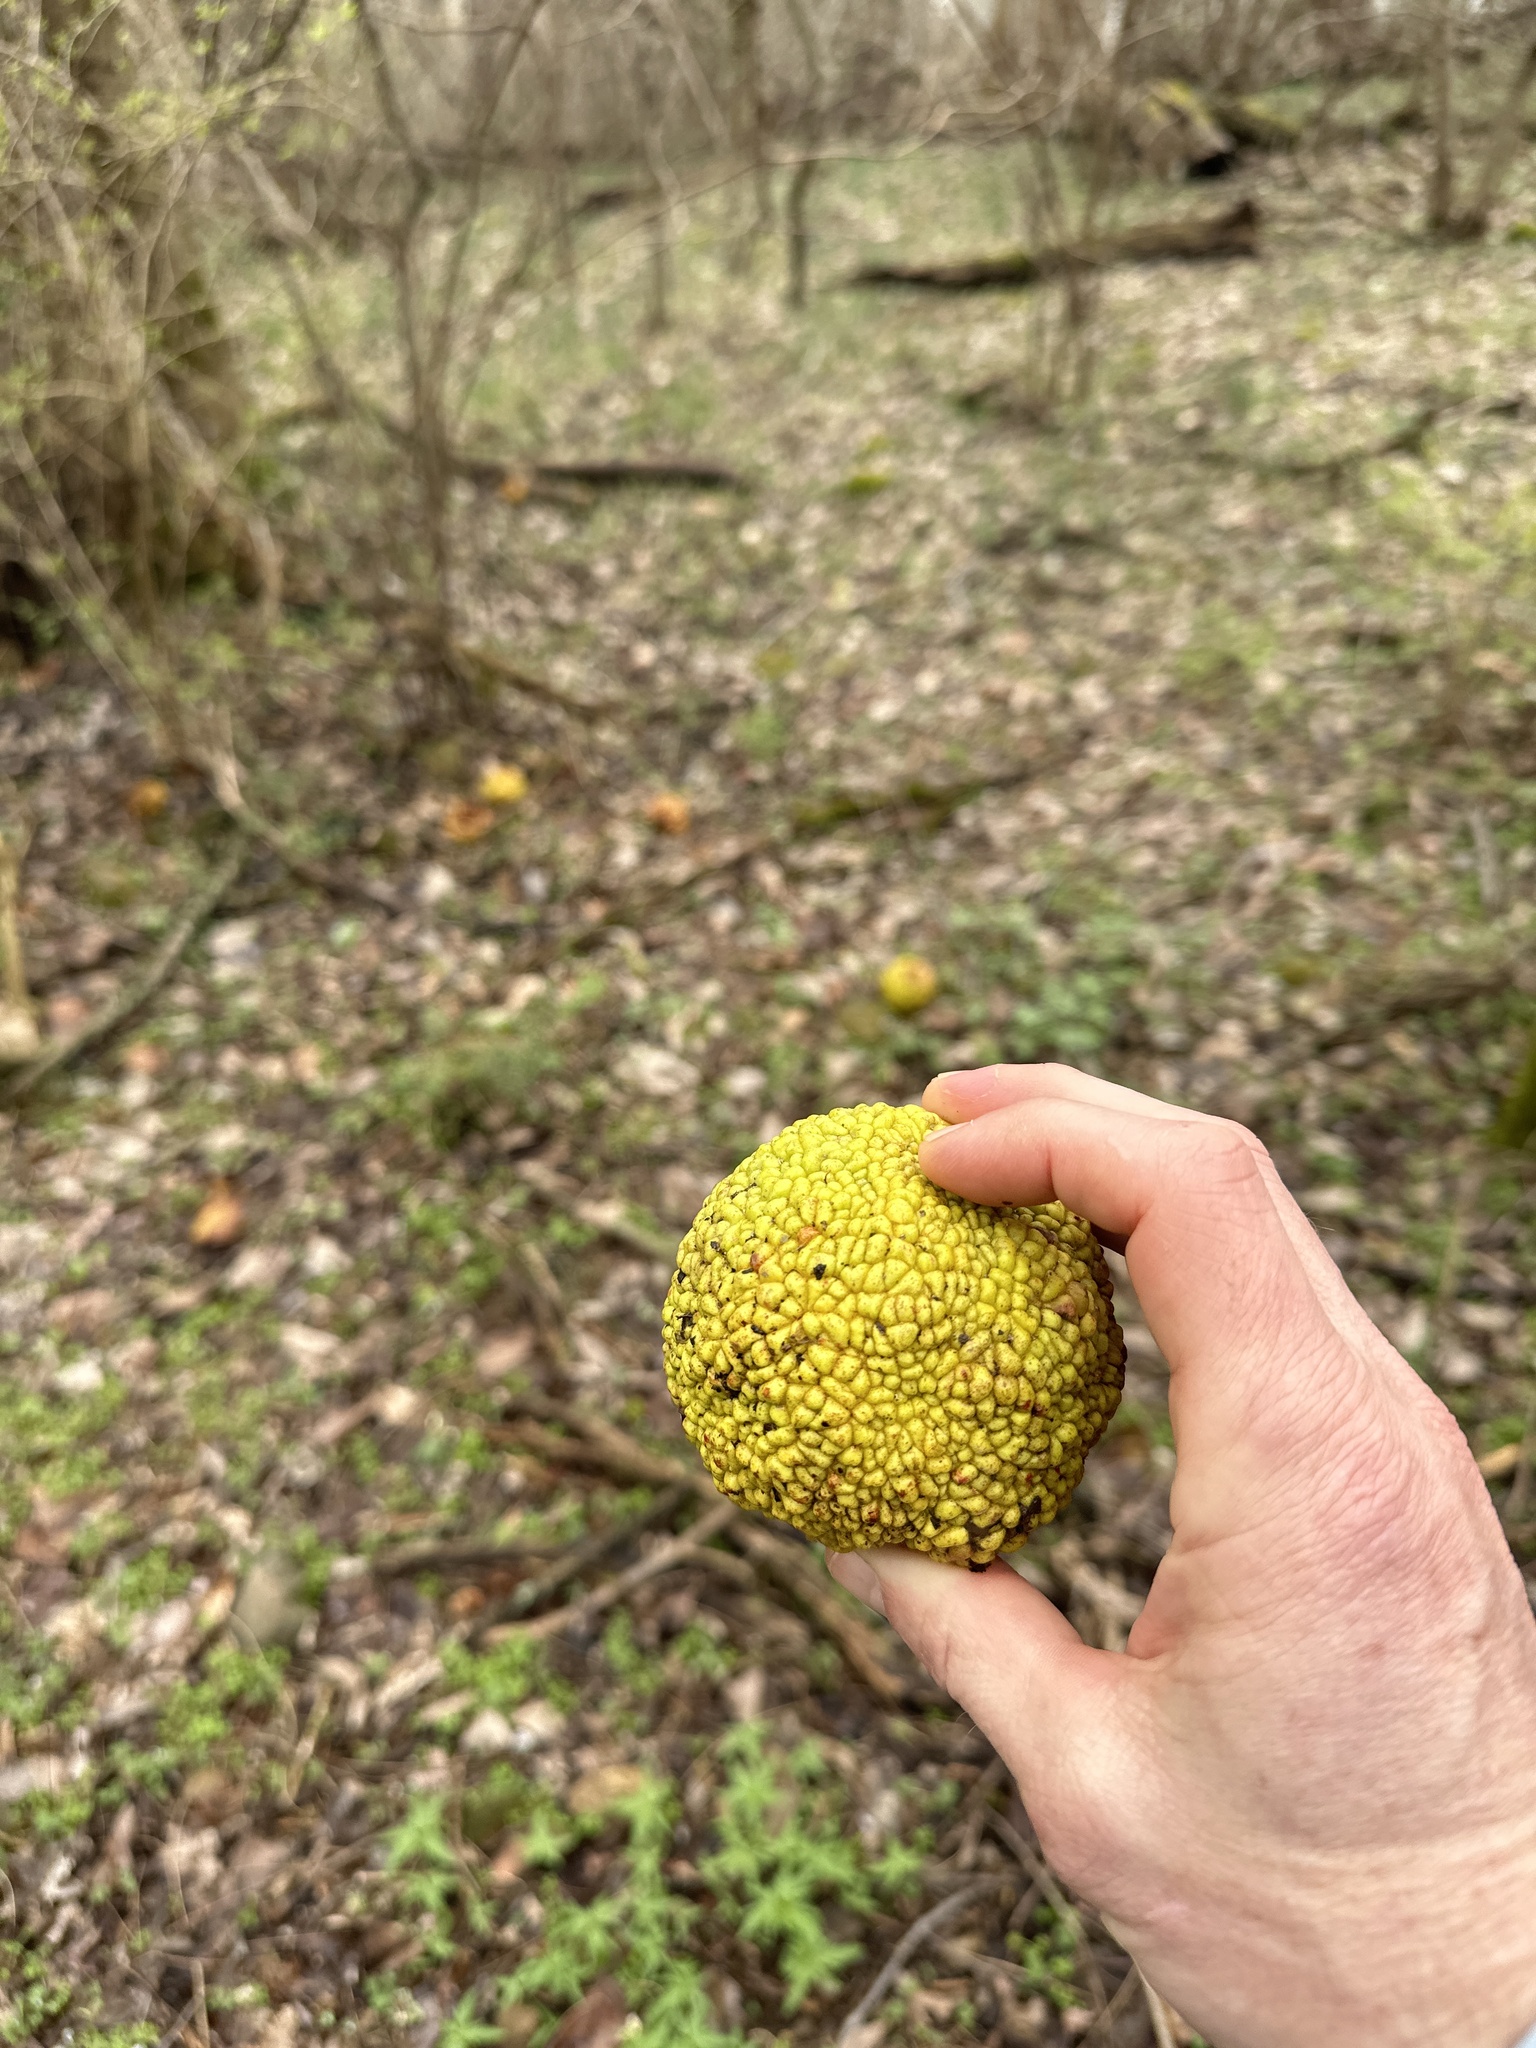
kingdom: Plantae
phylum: Tracheophyta
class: Magnoliopsida
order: Rosales
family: Moraceae
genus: Maclura
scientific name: Maclura pomifera
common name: Osage-orange
